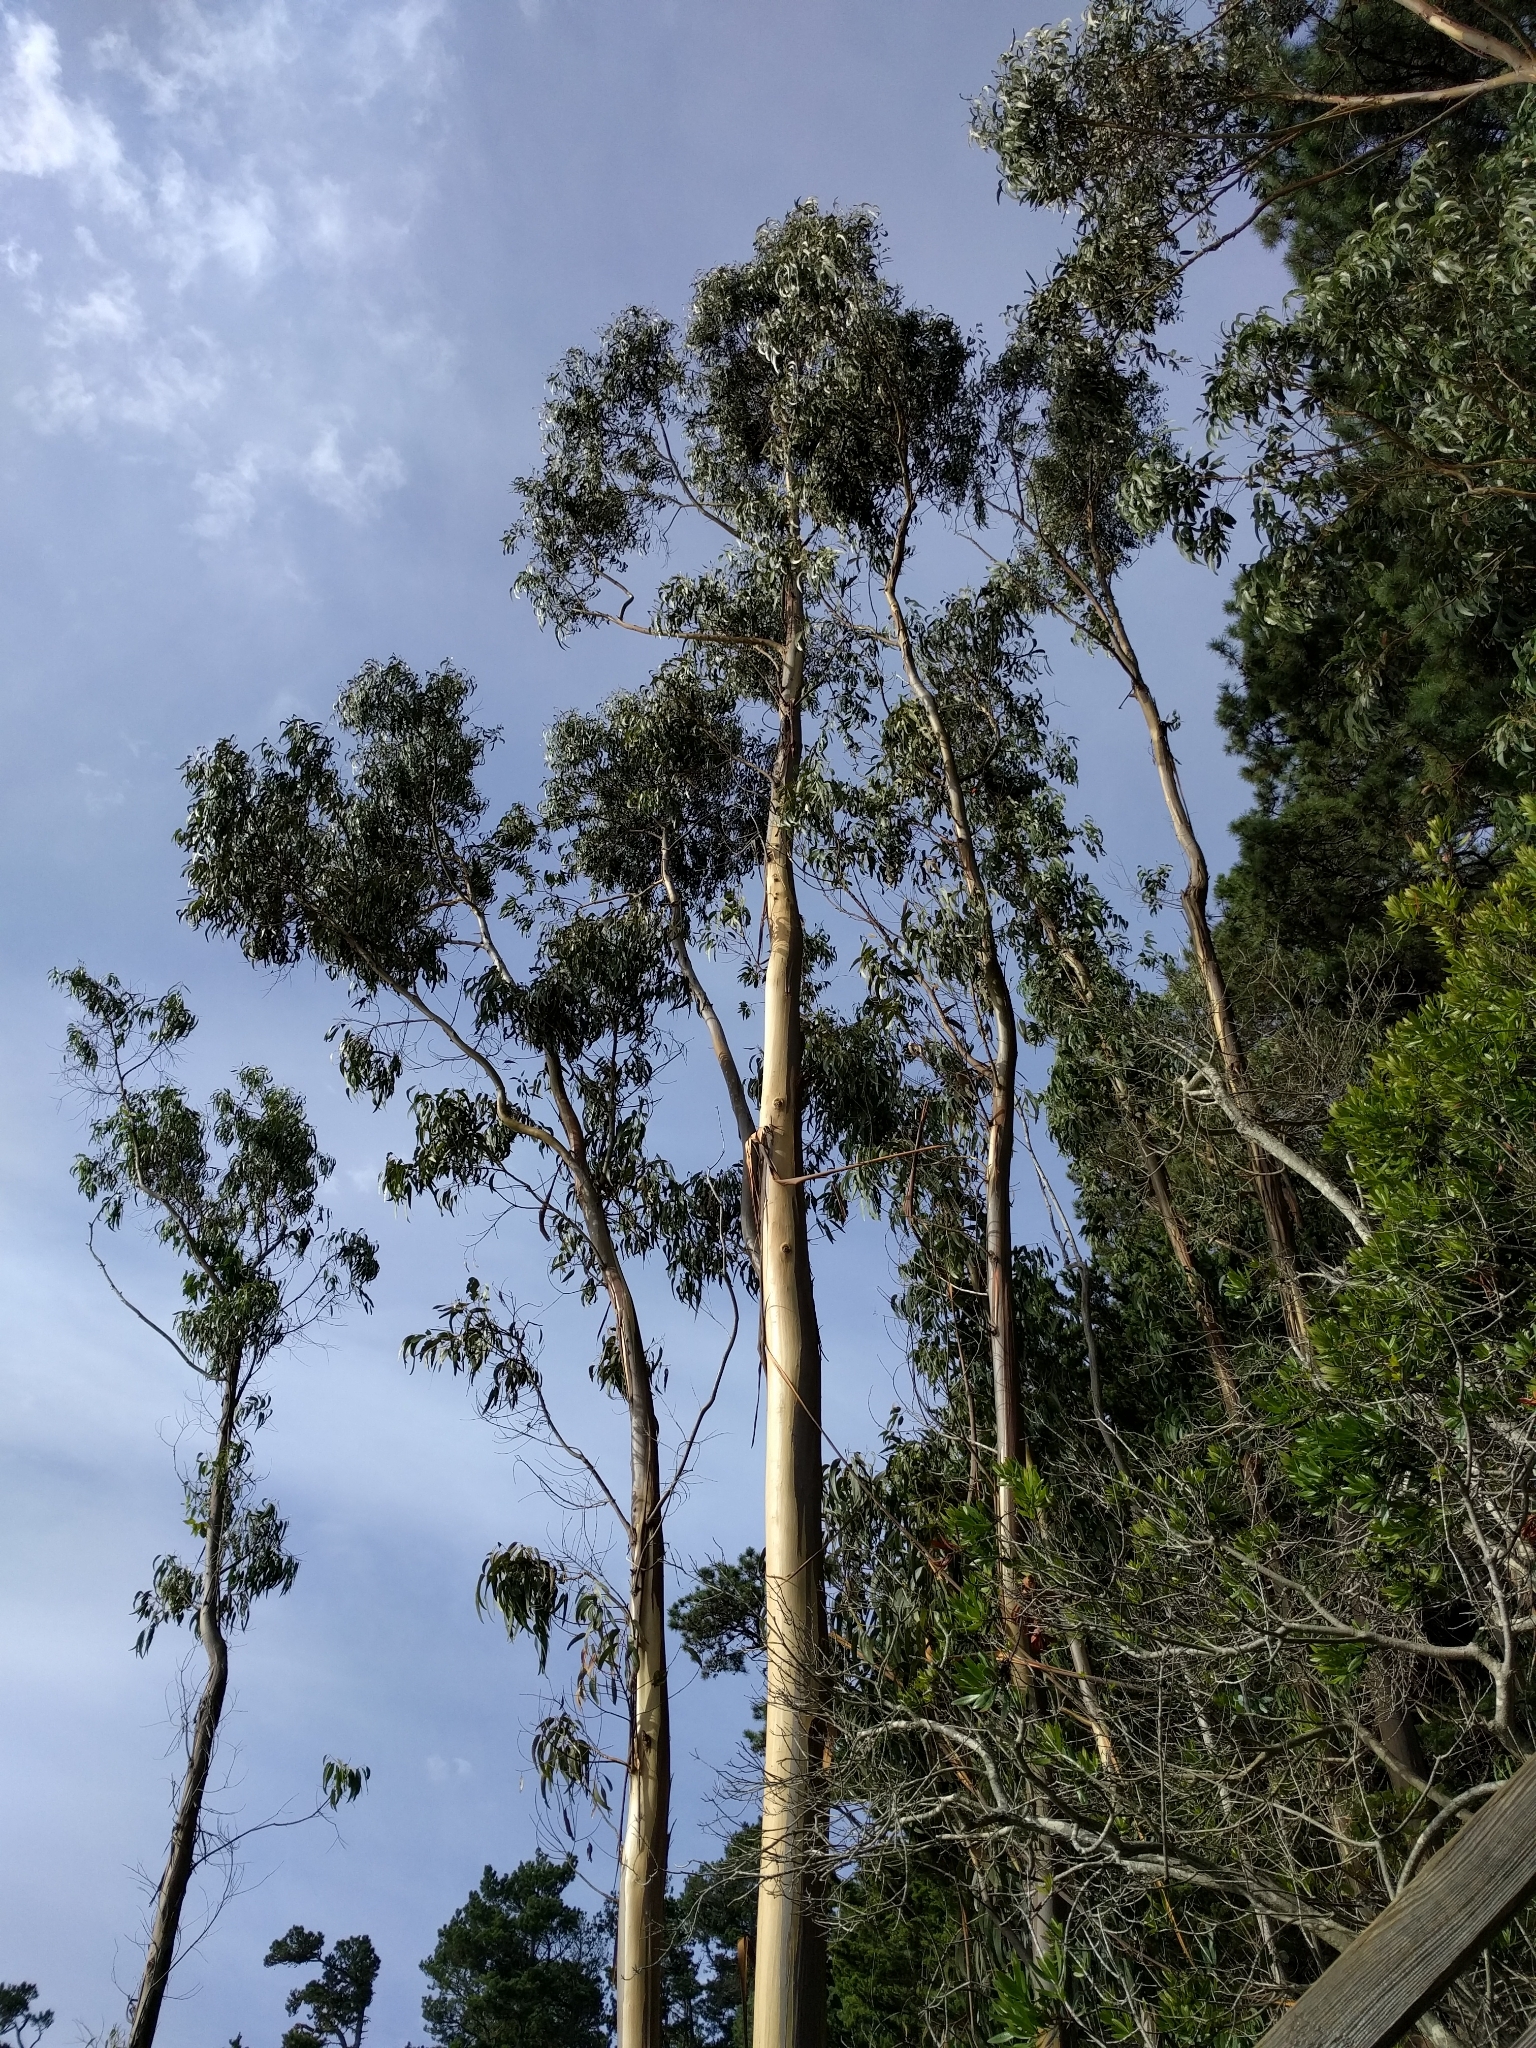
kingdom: Plantae
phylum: Tracheophyta
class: Magnoliopsida
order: Myrtales
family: Myrtaceae
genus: Eucalyptus
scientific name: Eucalyptus globulus
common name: Southern blue-gum
